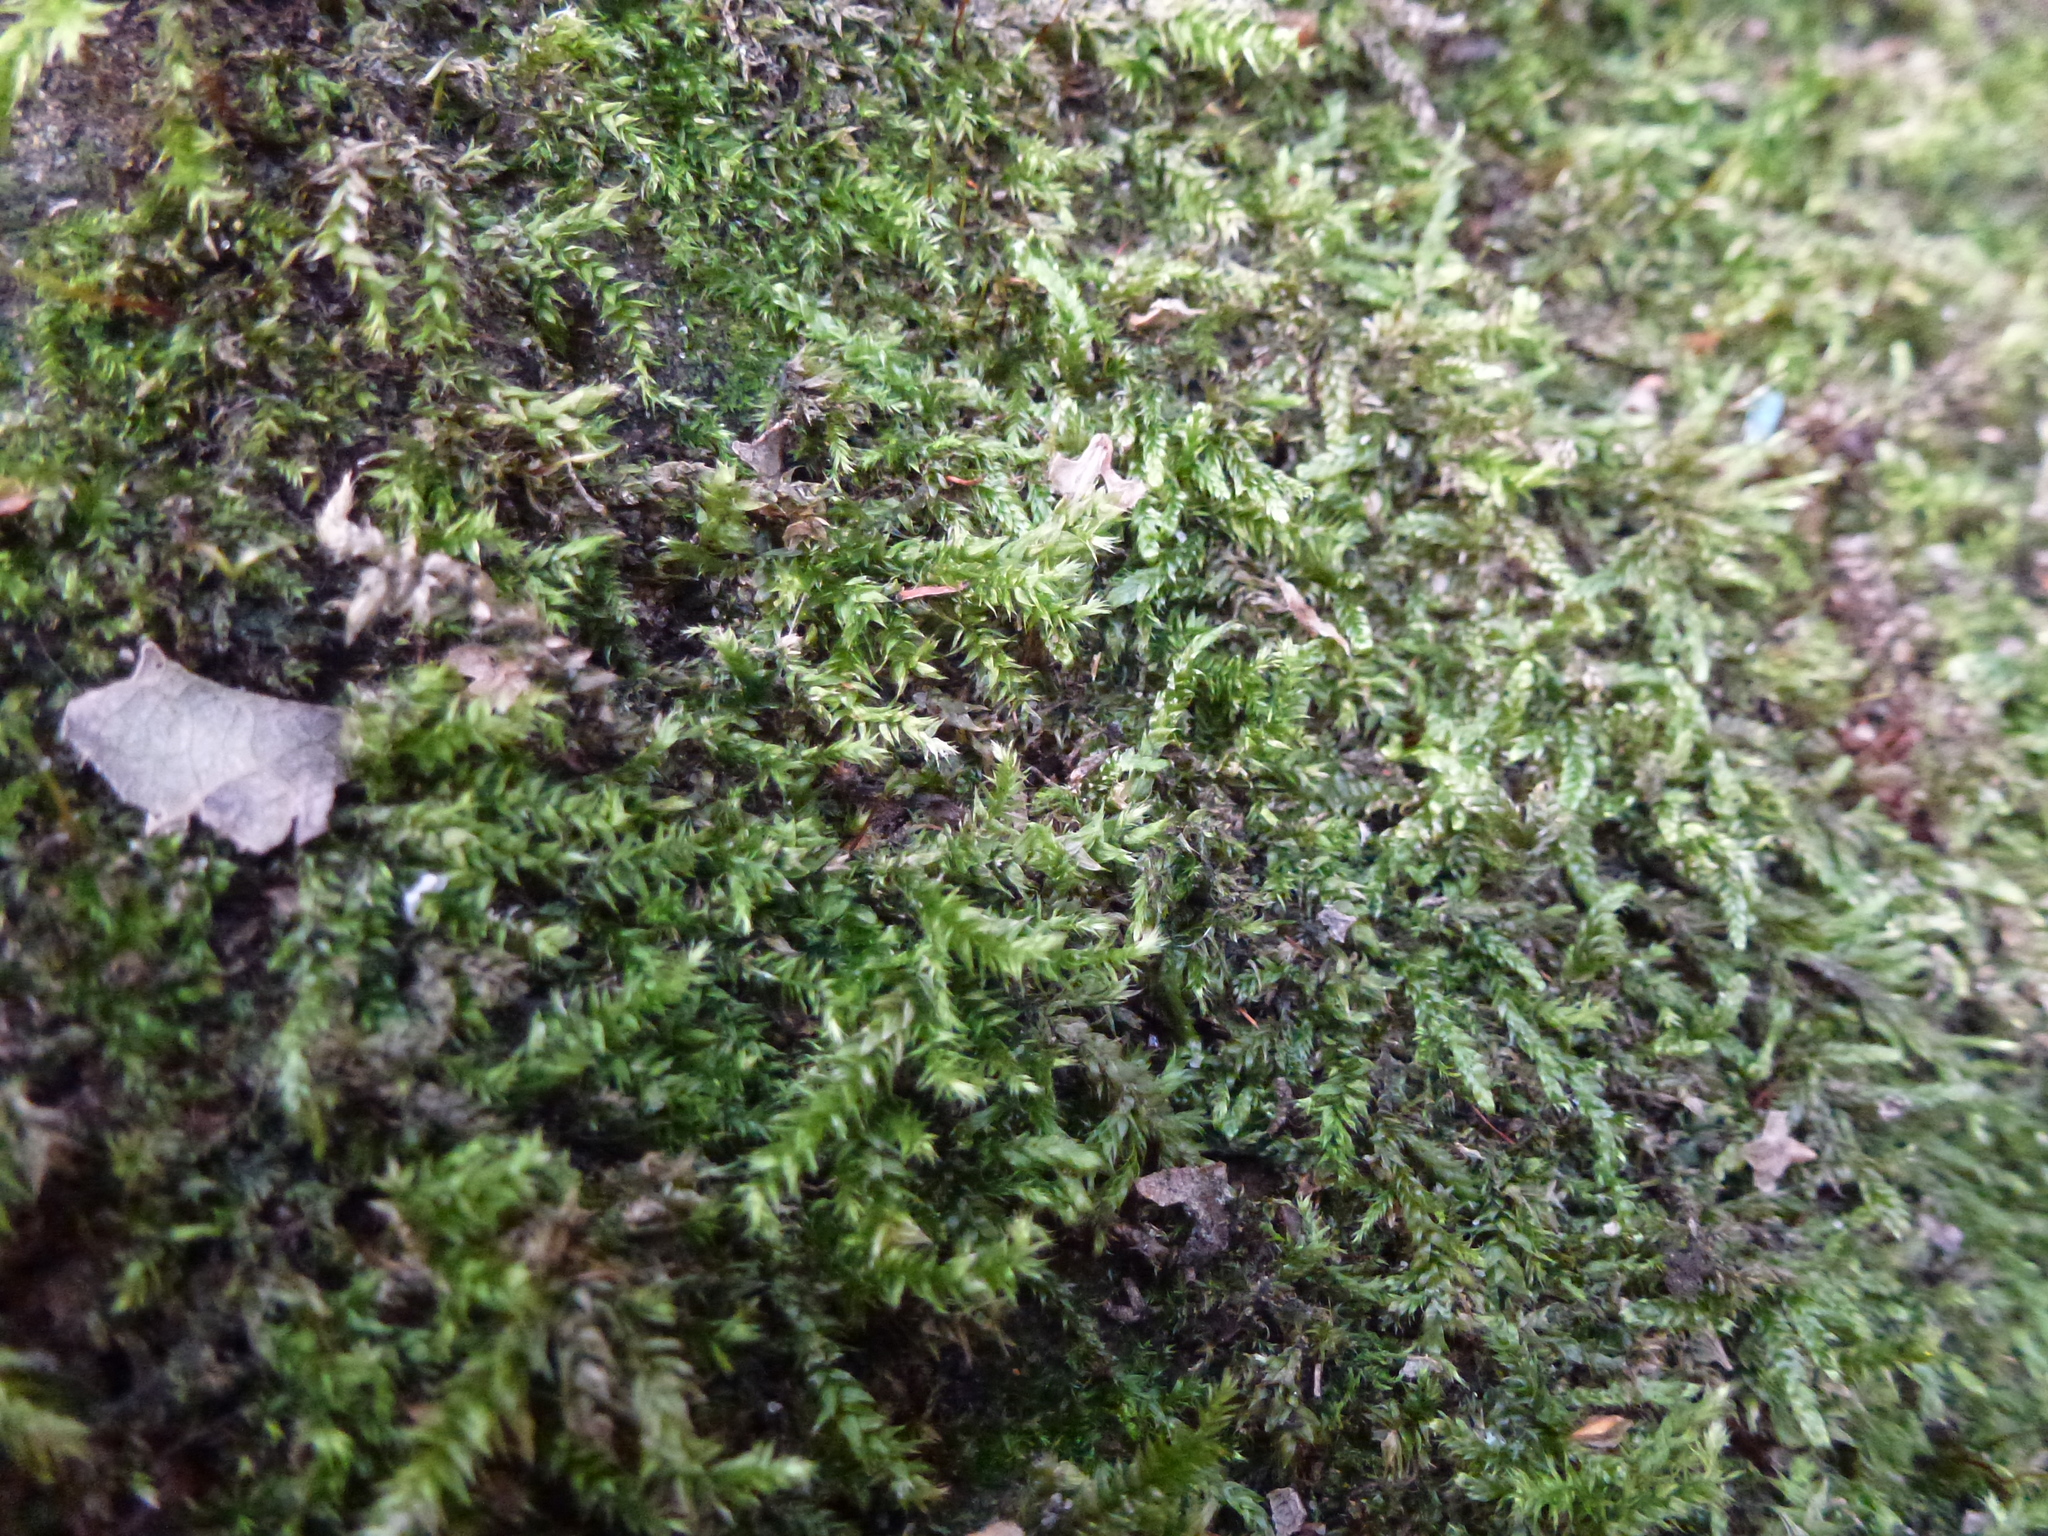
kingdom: Plantae
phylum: Bryophyta
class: Bryopsida
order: Hypnales
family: Hypnaceae
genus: Hypnum
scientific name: Hypnum cupressiforme
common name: Cypress-leaved plait-moss
